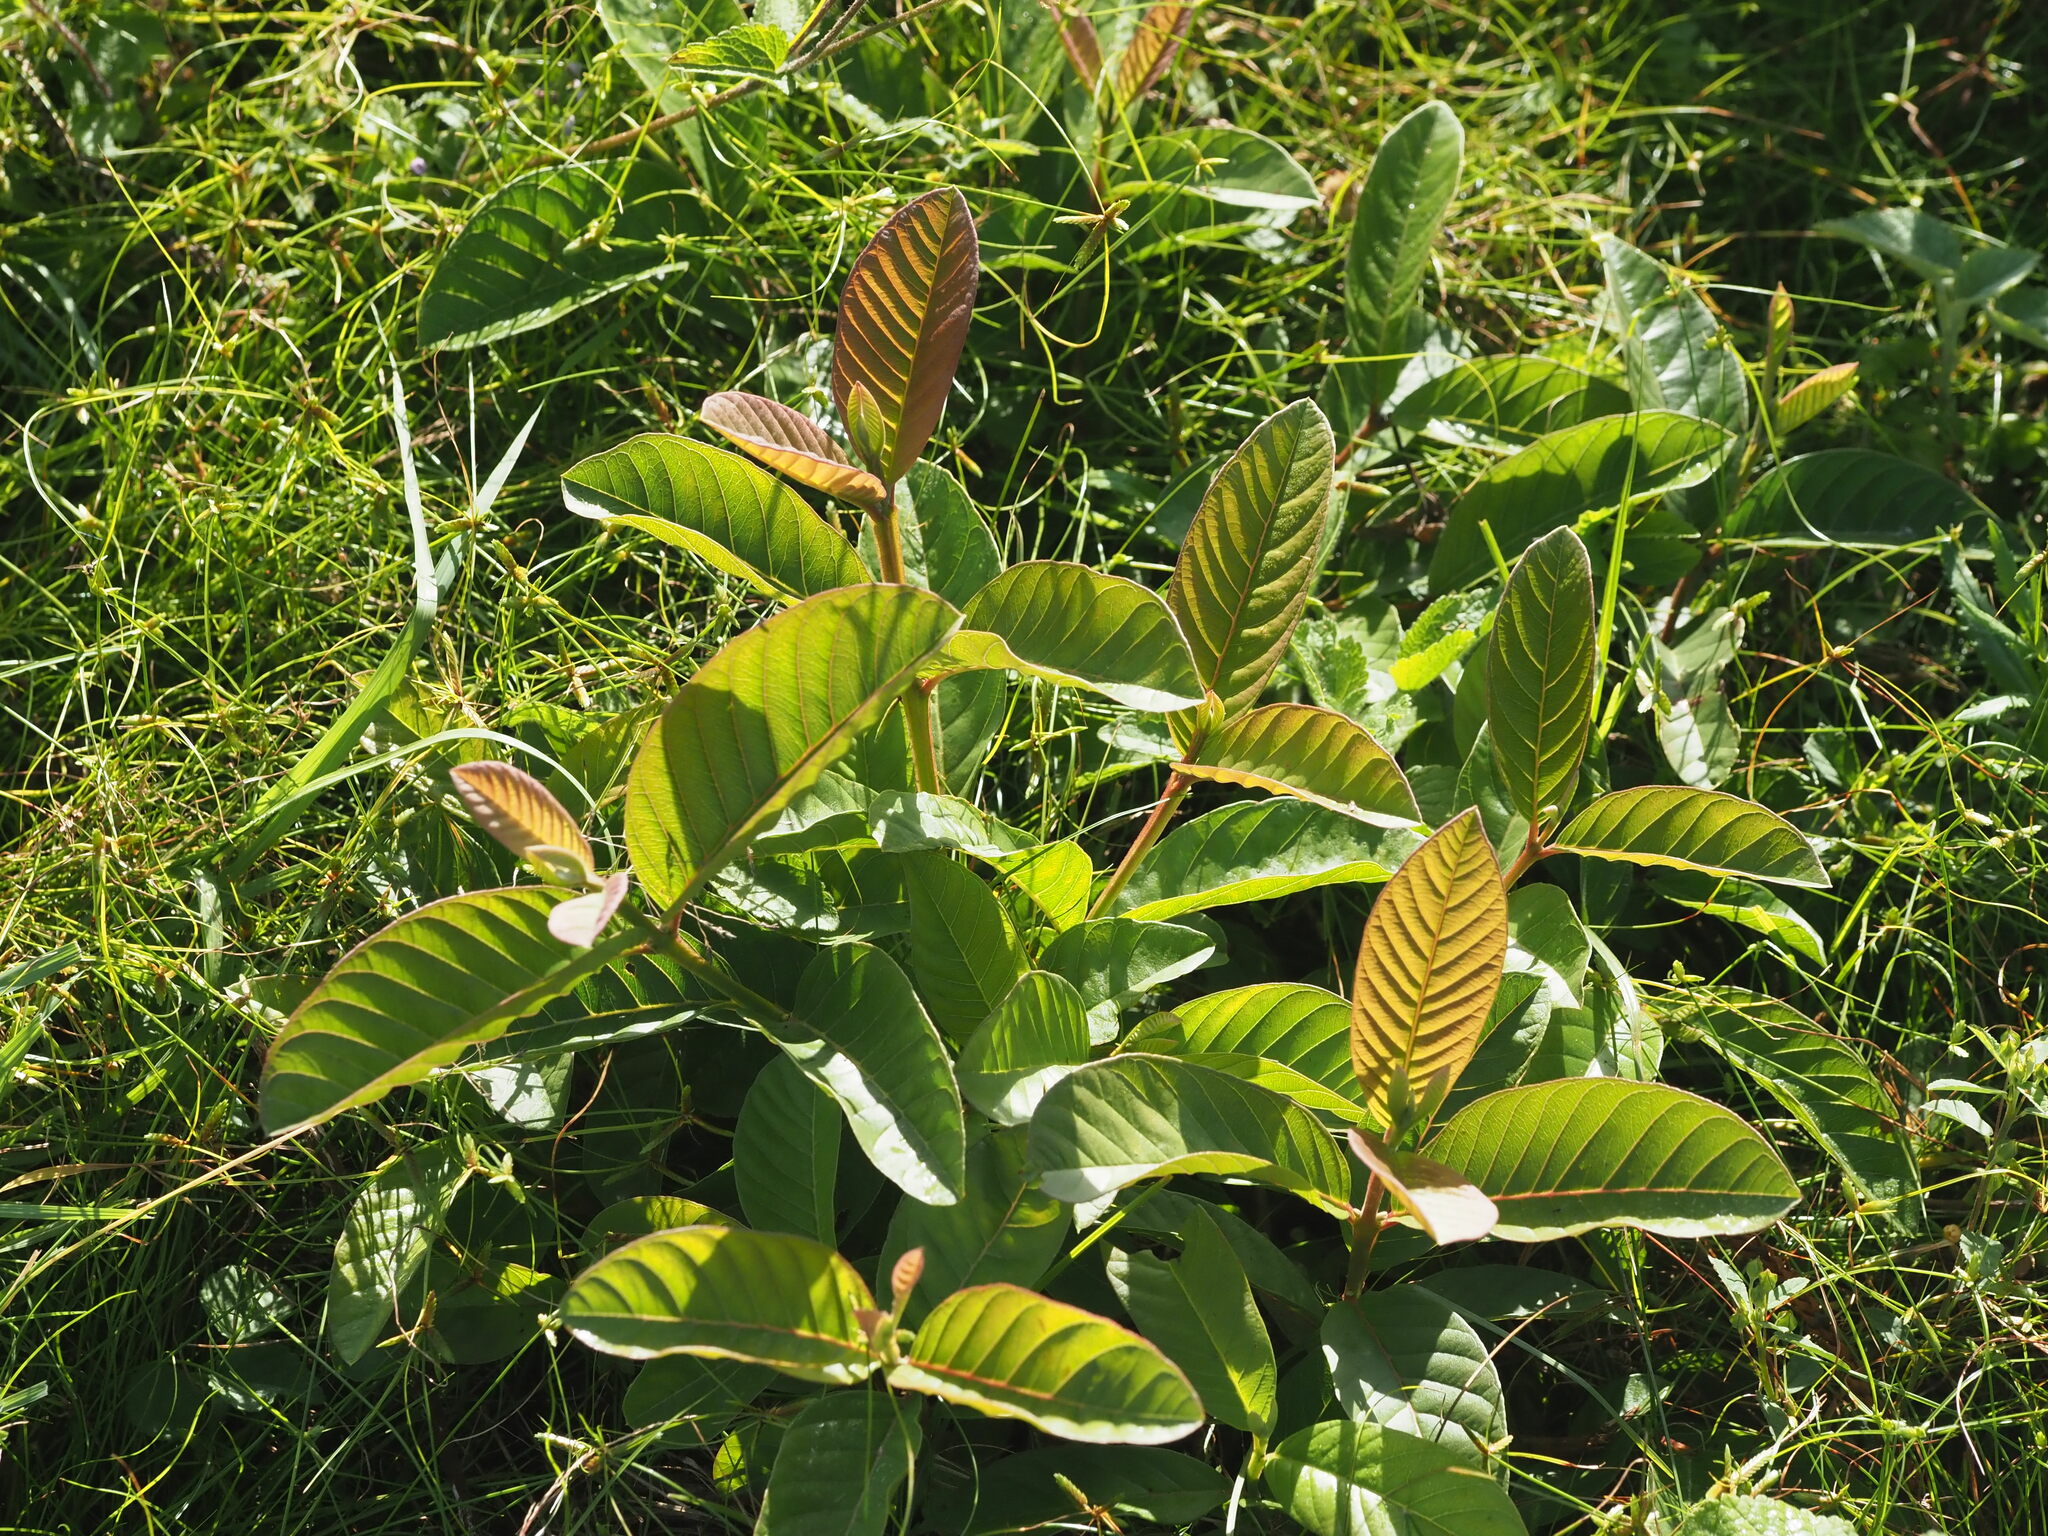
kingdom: Plantae
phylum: Tracheophyta
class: Magnoliopsida
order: Myrtales
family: Myrtaceae
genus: Psidium
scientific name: Psidium guajava
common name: Guava
